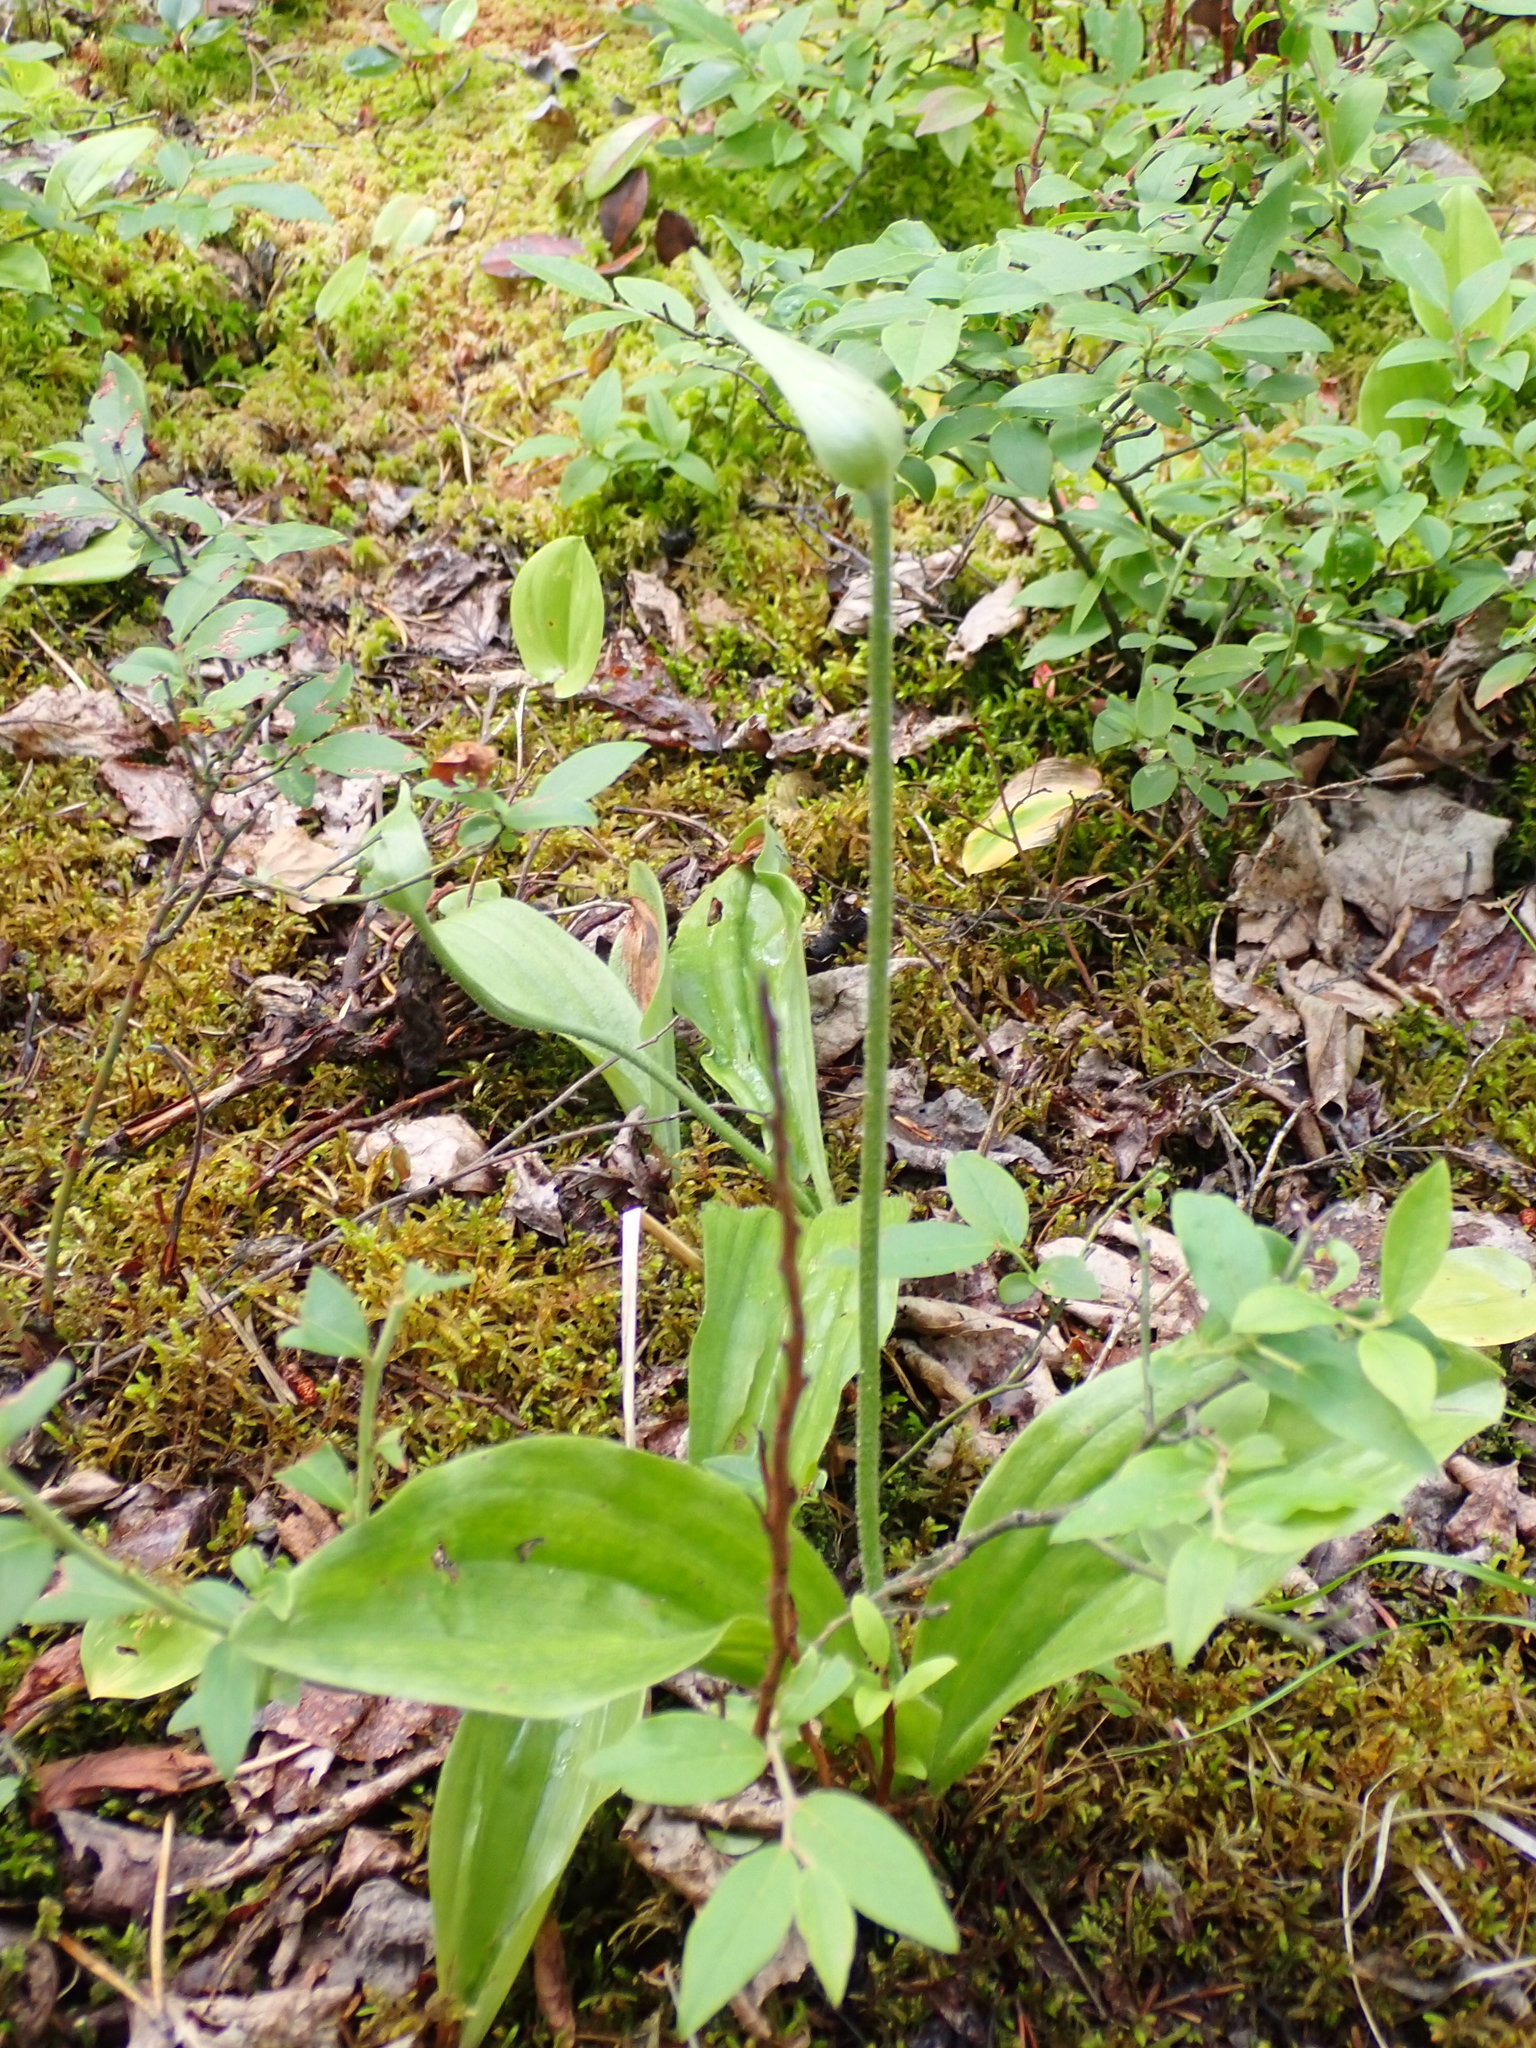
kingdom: Plantae
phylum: Tracheophyta
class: Liliopsida
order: Asparagales
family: Orchidaceae
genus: Cypripedium
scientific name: Cypripedium acaule
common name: Pink lady's-slipper
